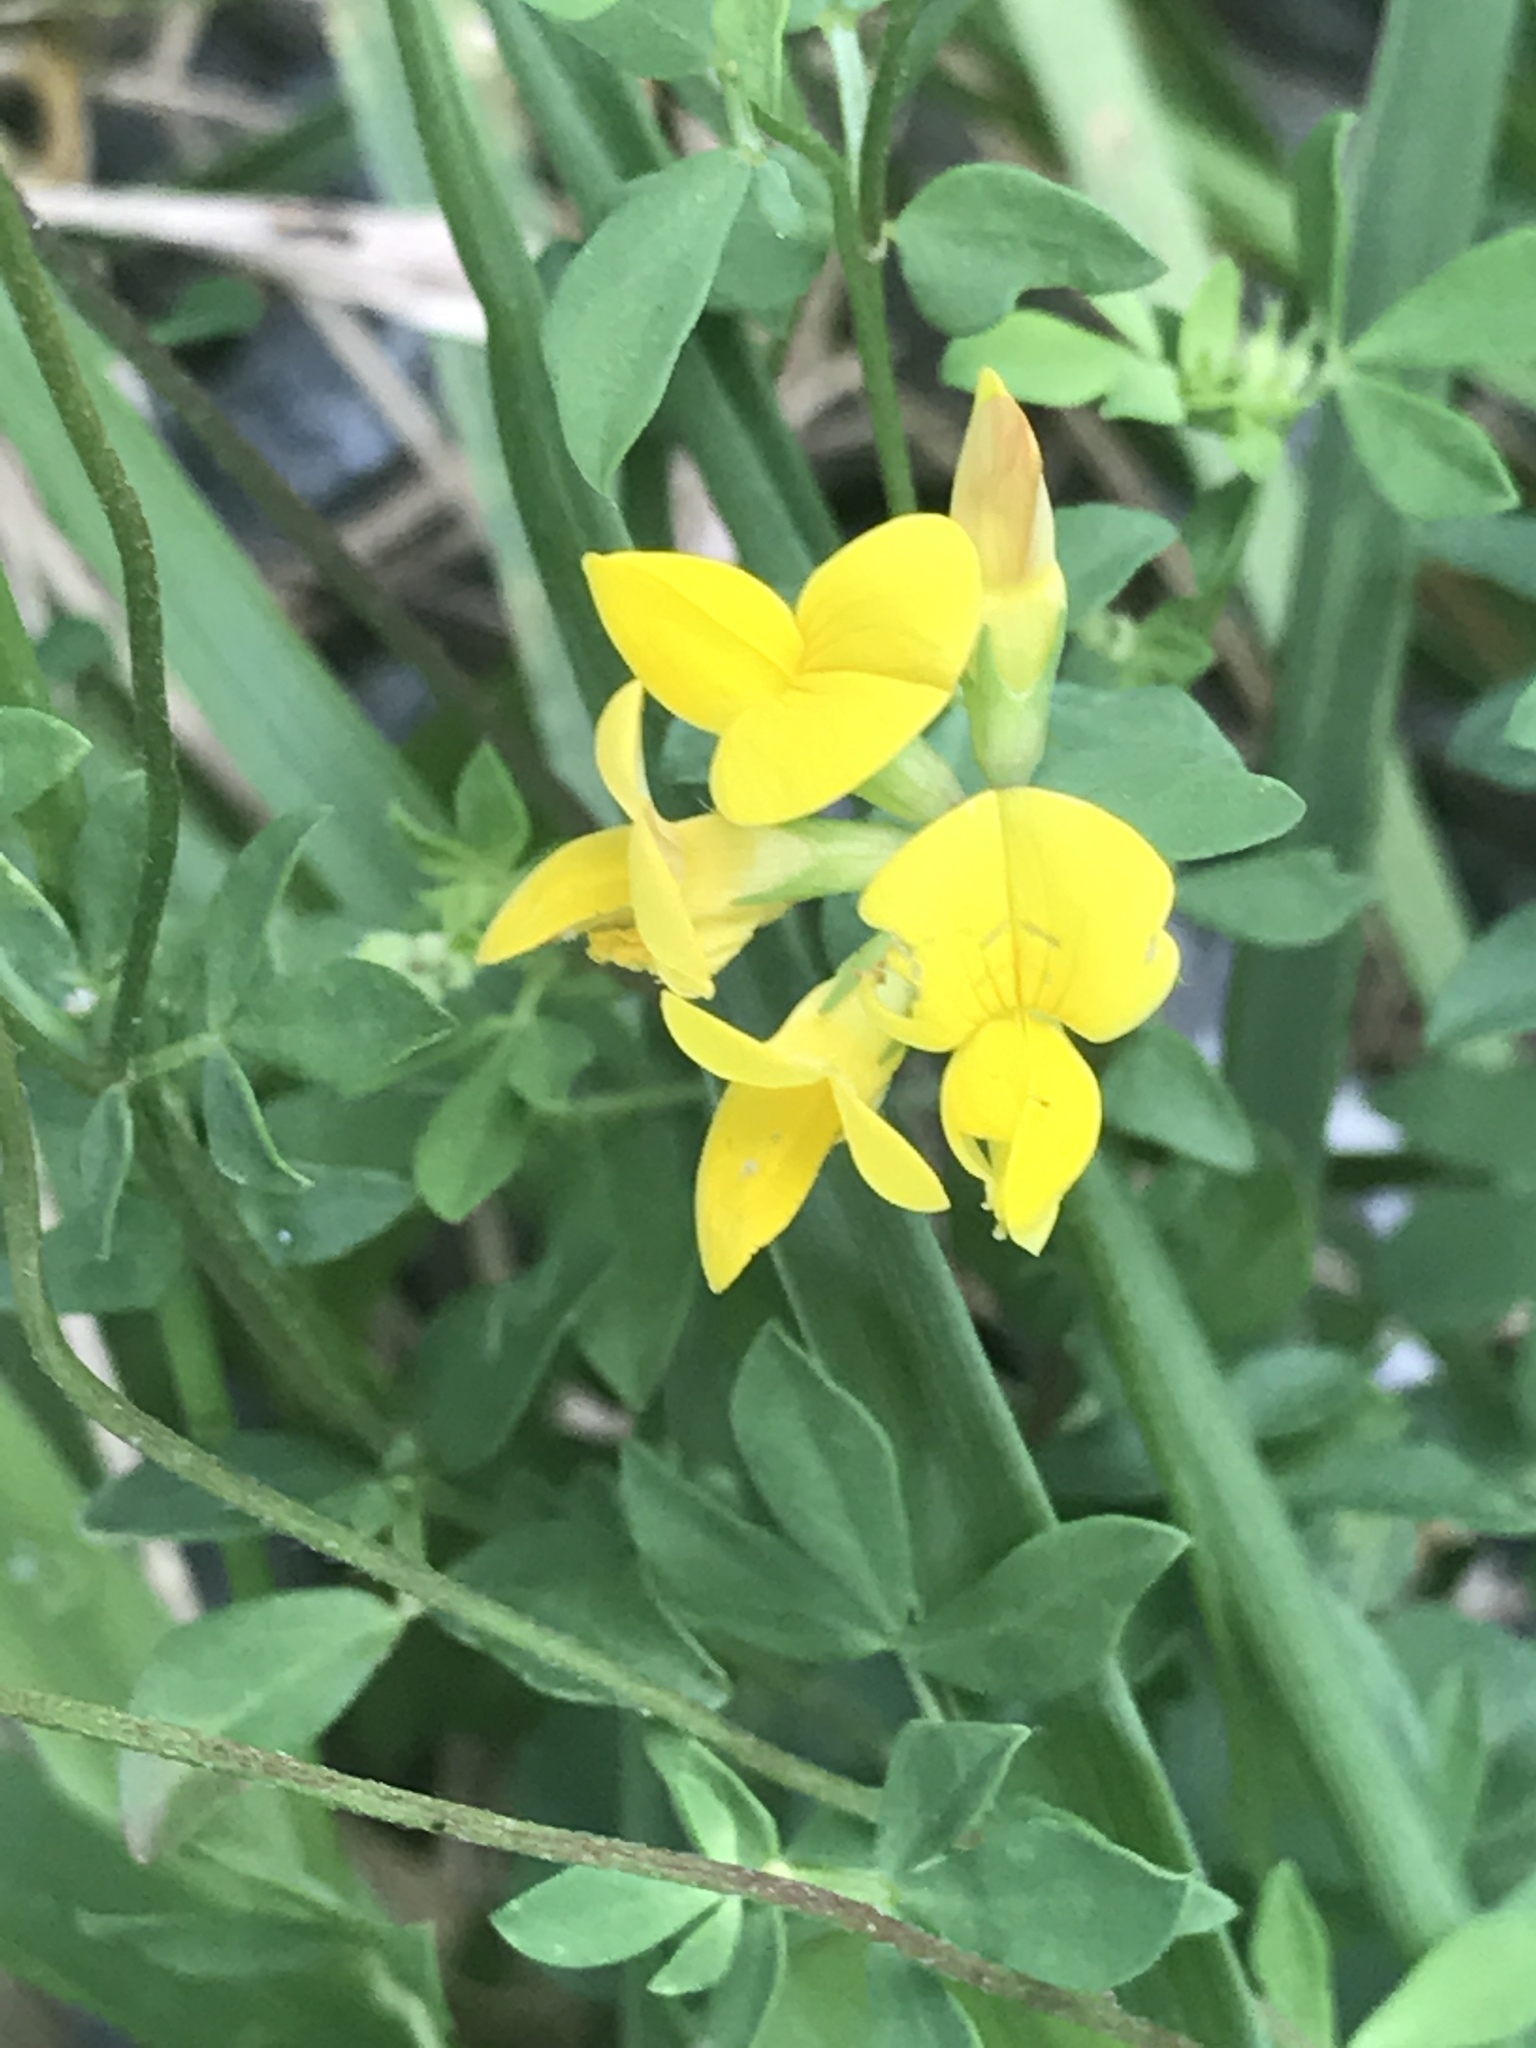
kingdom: Plantae
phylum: Tracheophyta
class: Magnoliopsida
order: Fabales
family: Fabaceae
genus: Lotus
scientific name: Lotus corniculatus
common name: Common bird's-foot-trefoil
